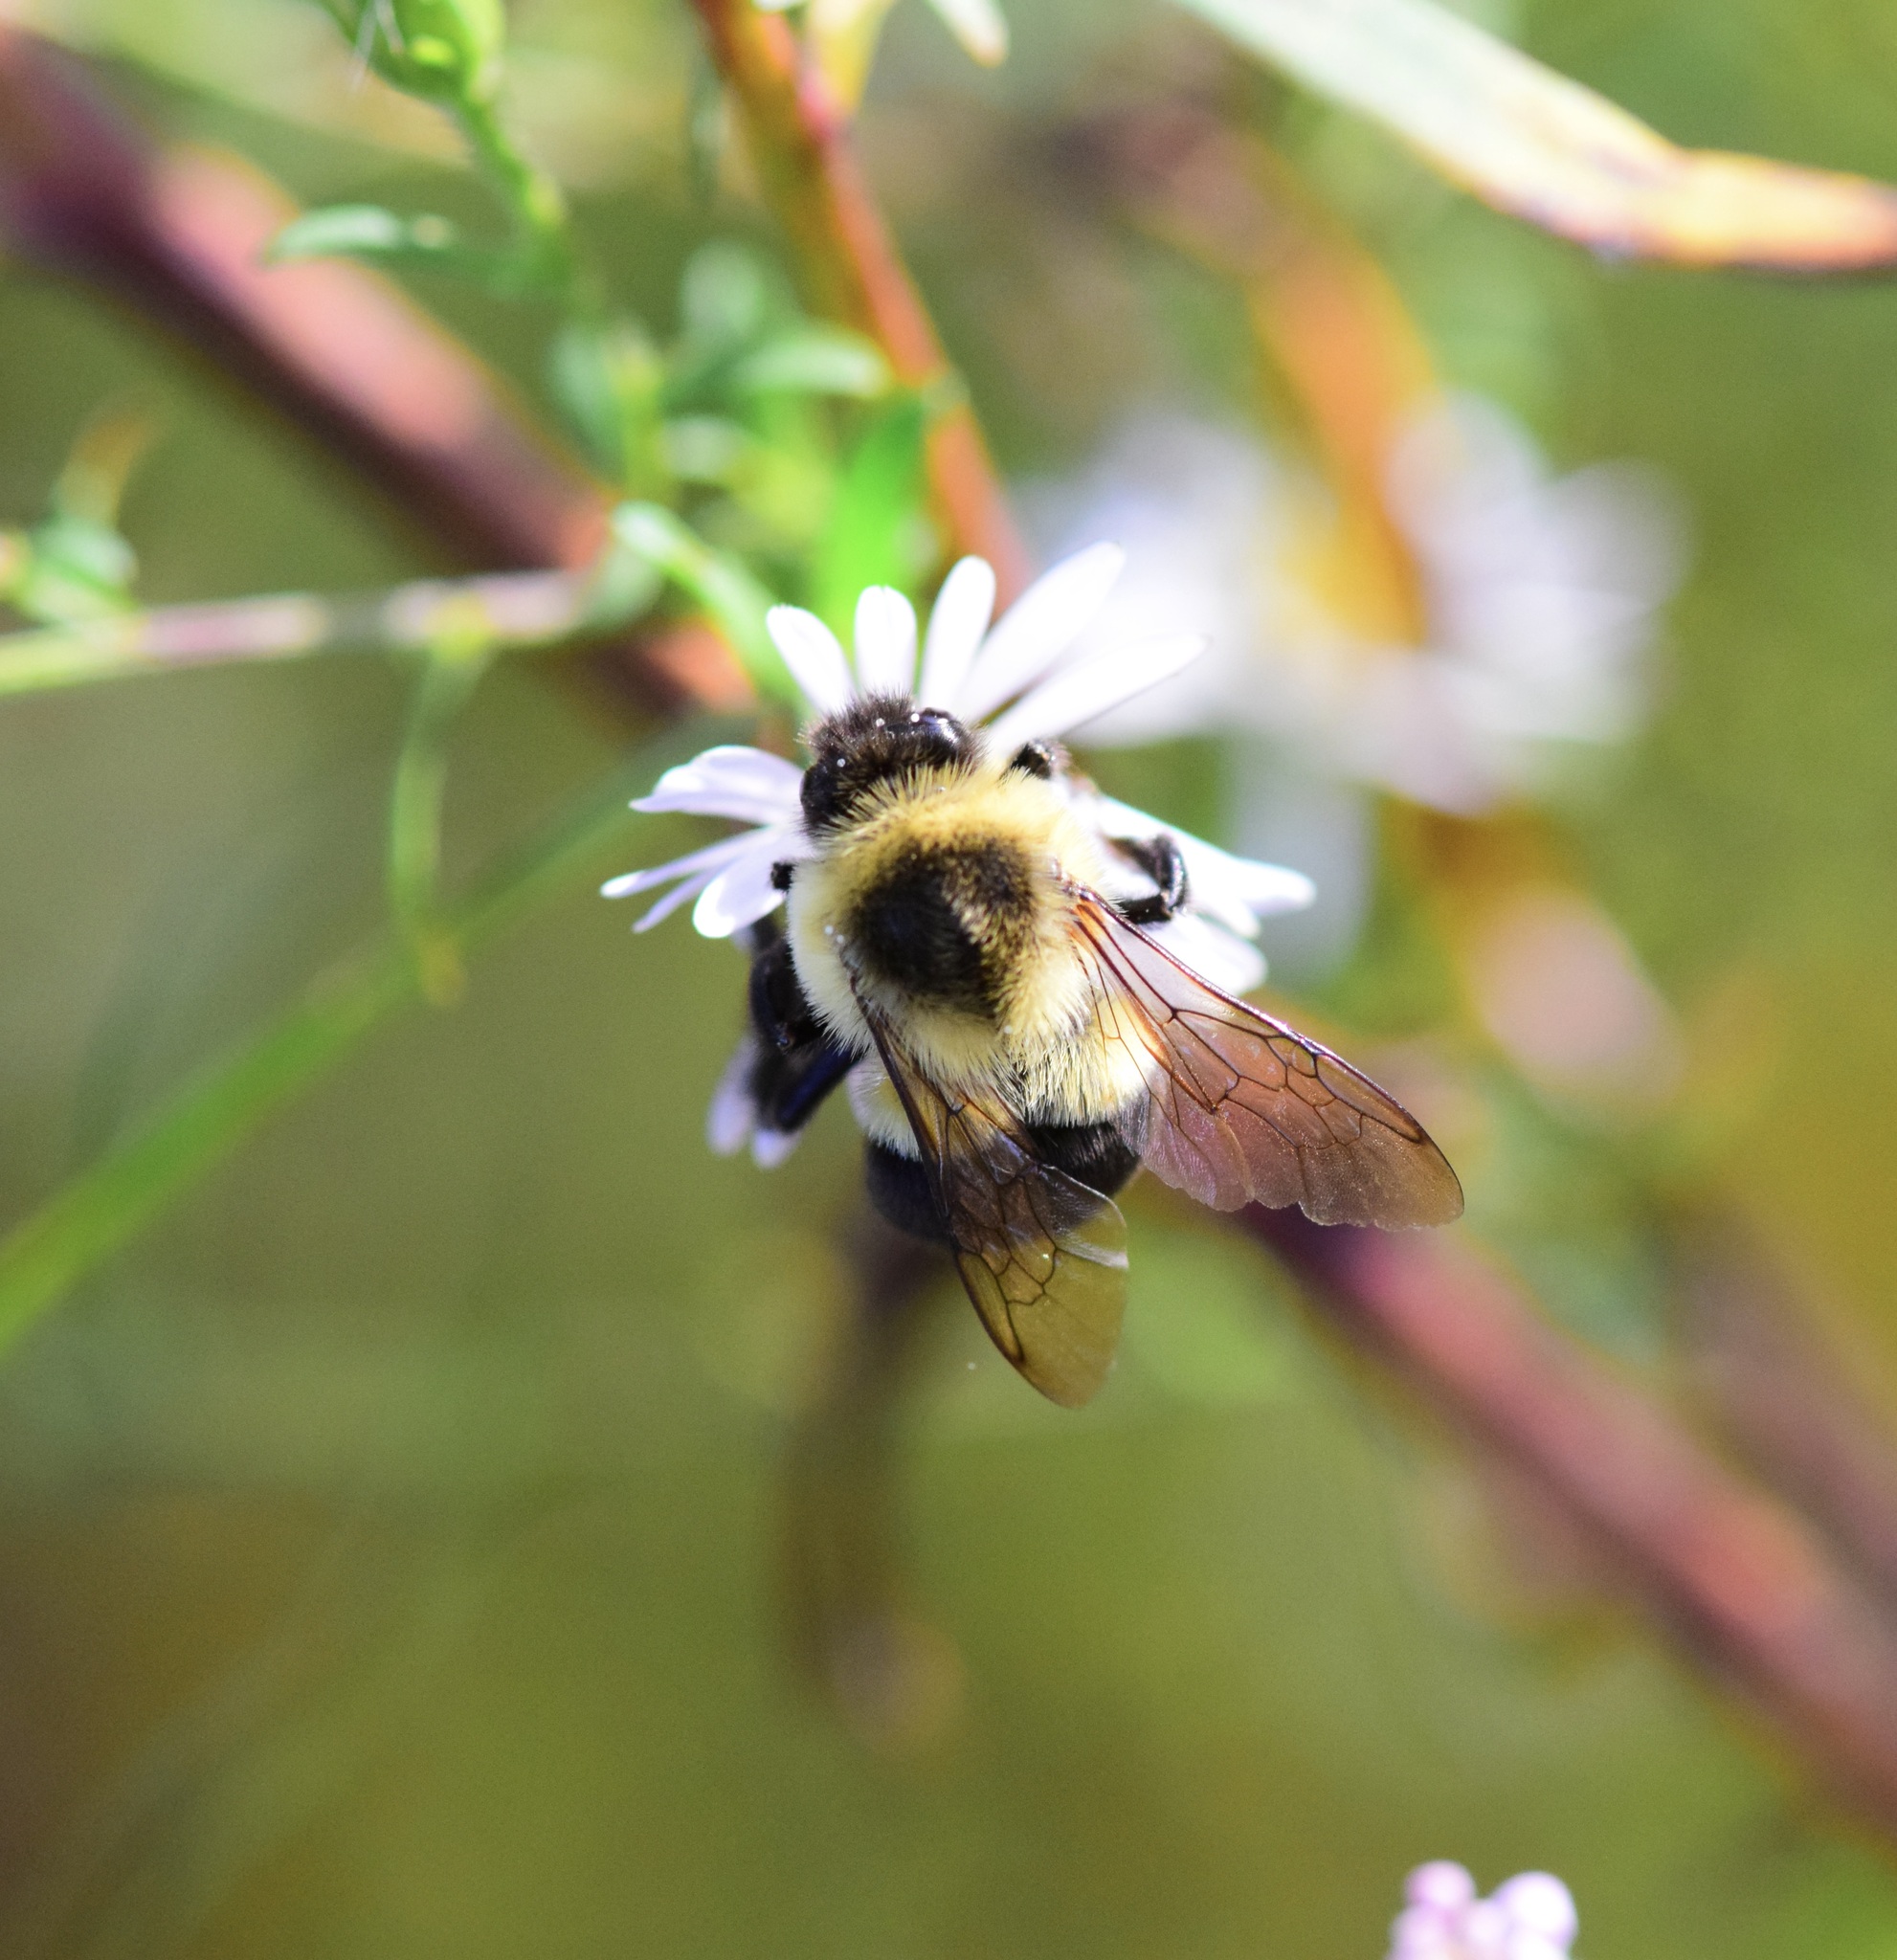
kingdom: Animalia
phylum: Arthropoda
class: Insecta
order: Hymenoptera
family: Apidae
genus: Bombus
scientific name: Bombus impatiens
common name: Common eastern bumble bee
